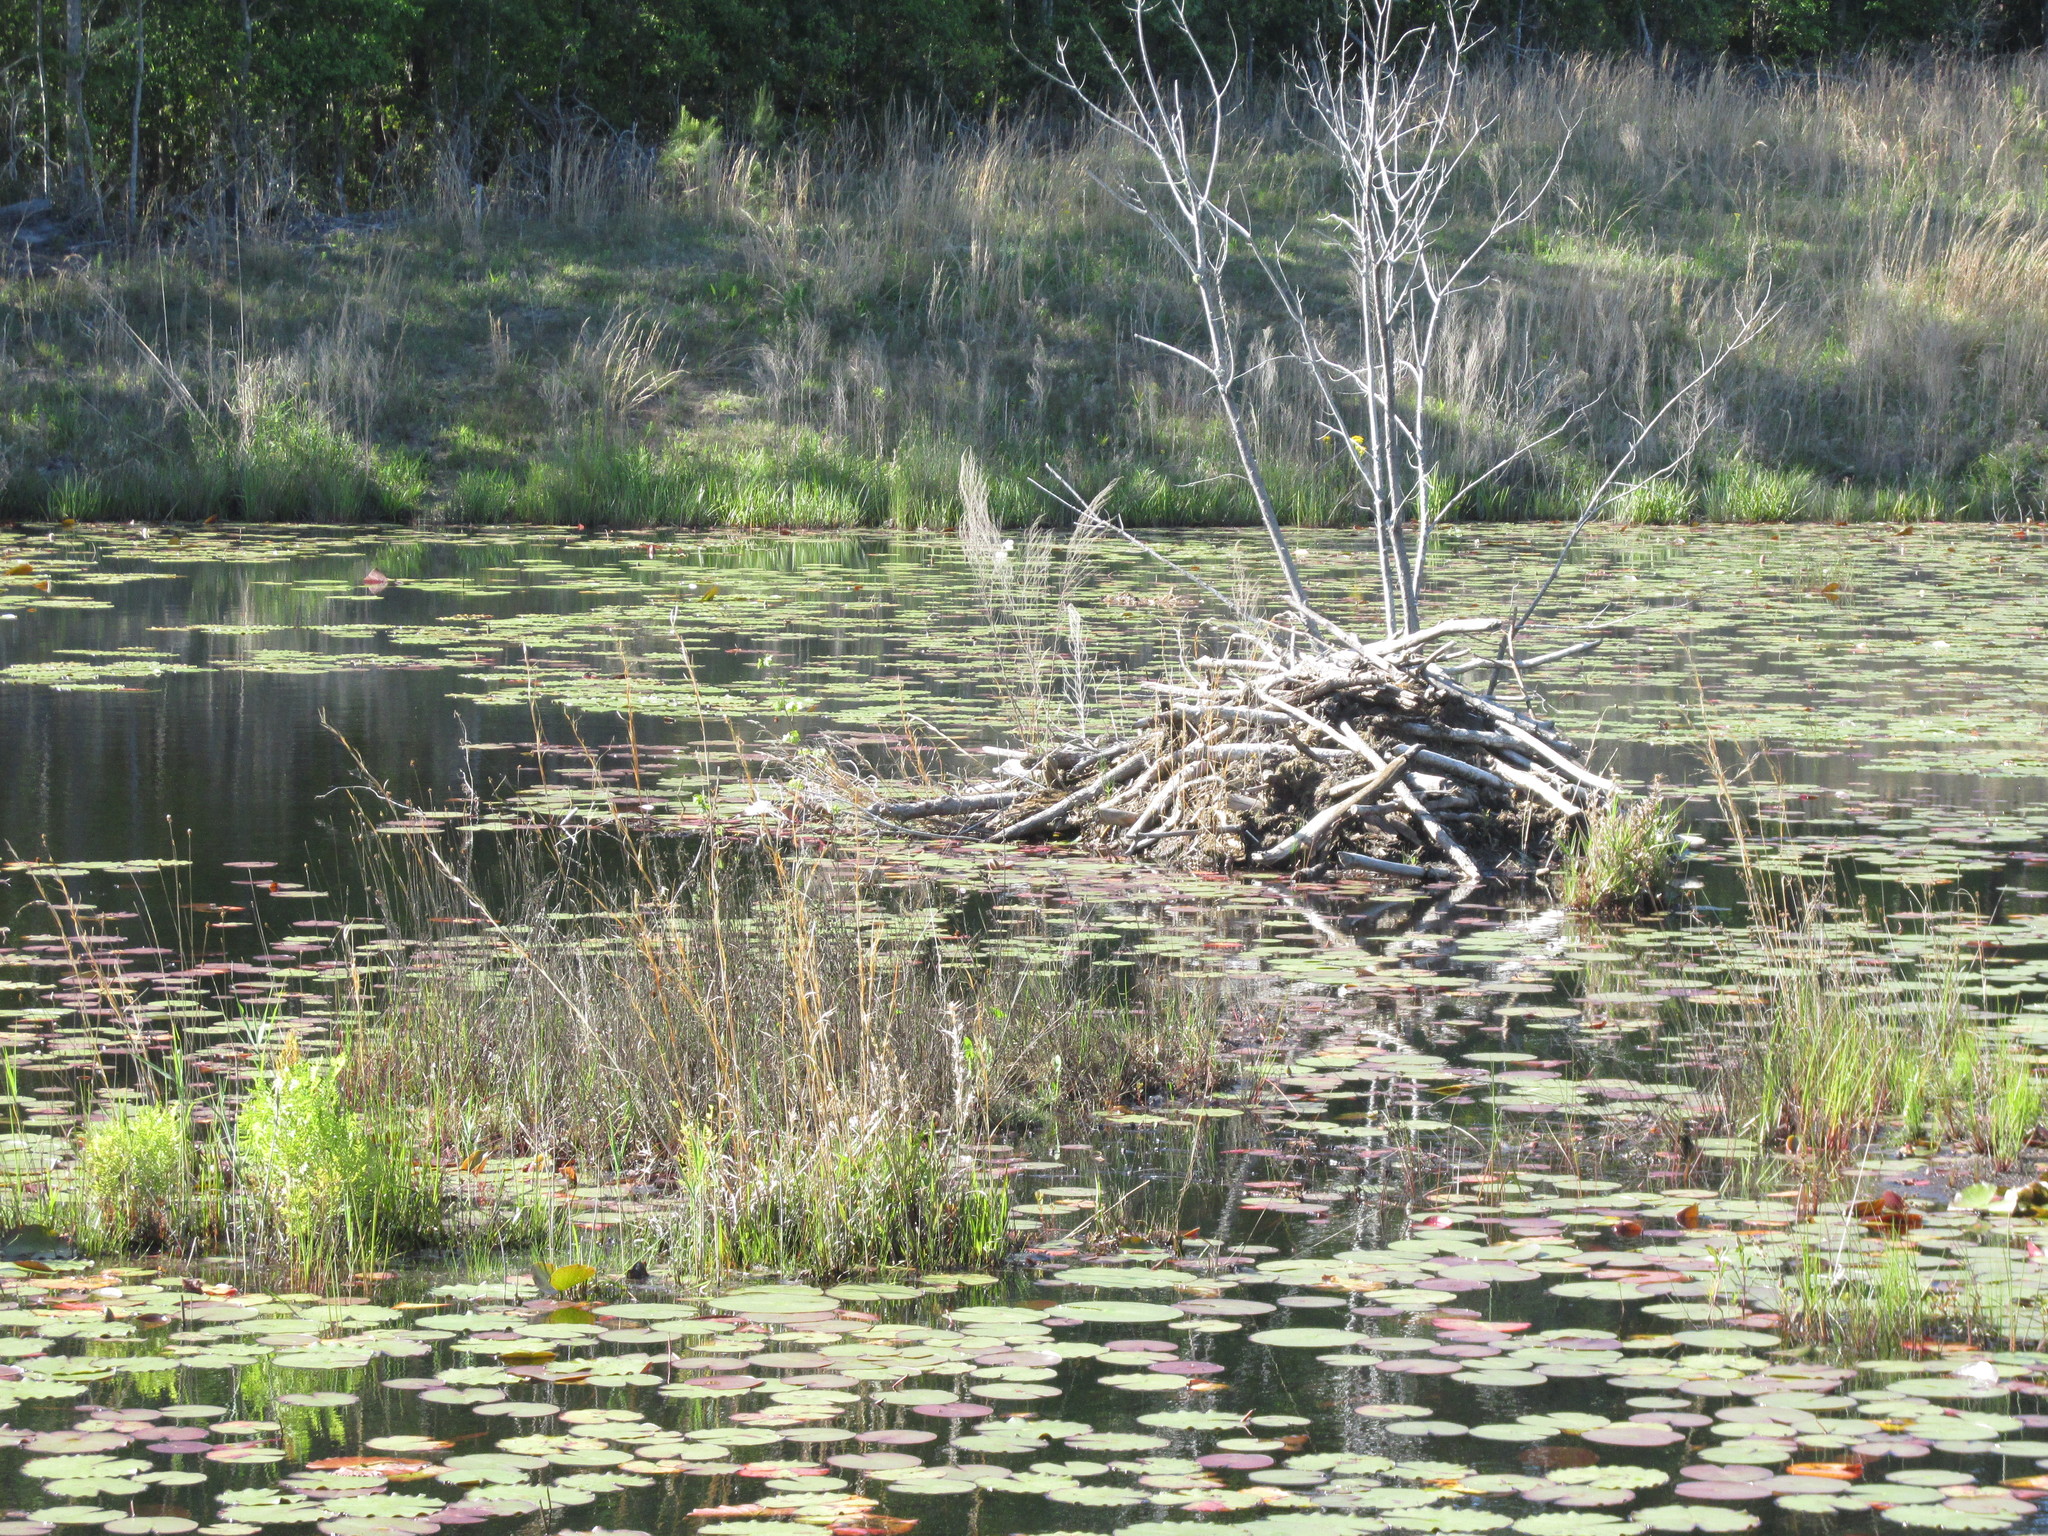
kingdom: Animalia
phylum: Chordata
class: Mammalia
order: Rodentia
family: Castoridae
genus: Castor
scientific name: Castor canadensis
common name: American beaver
